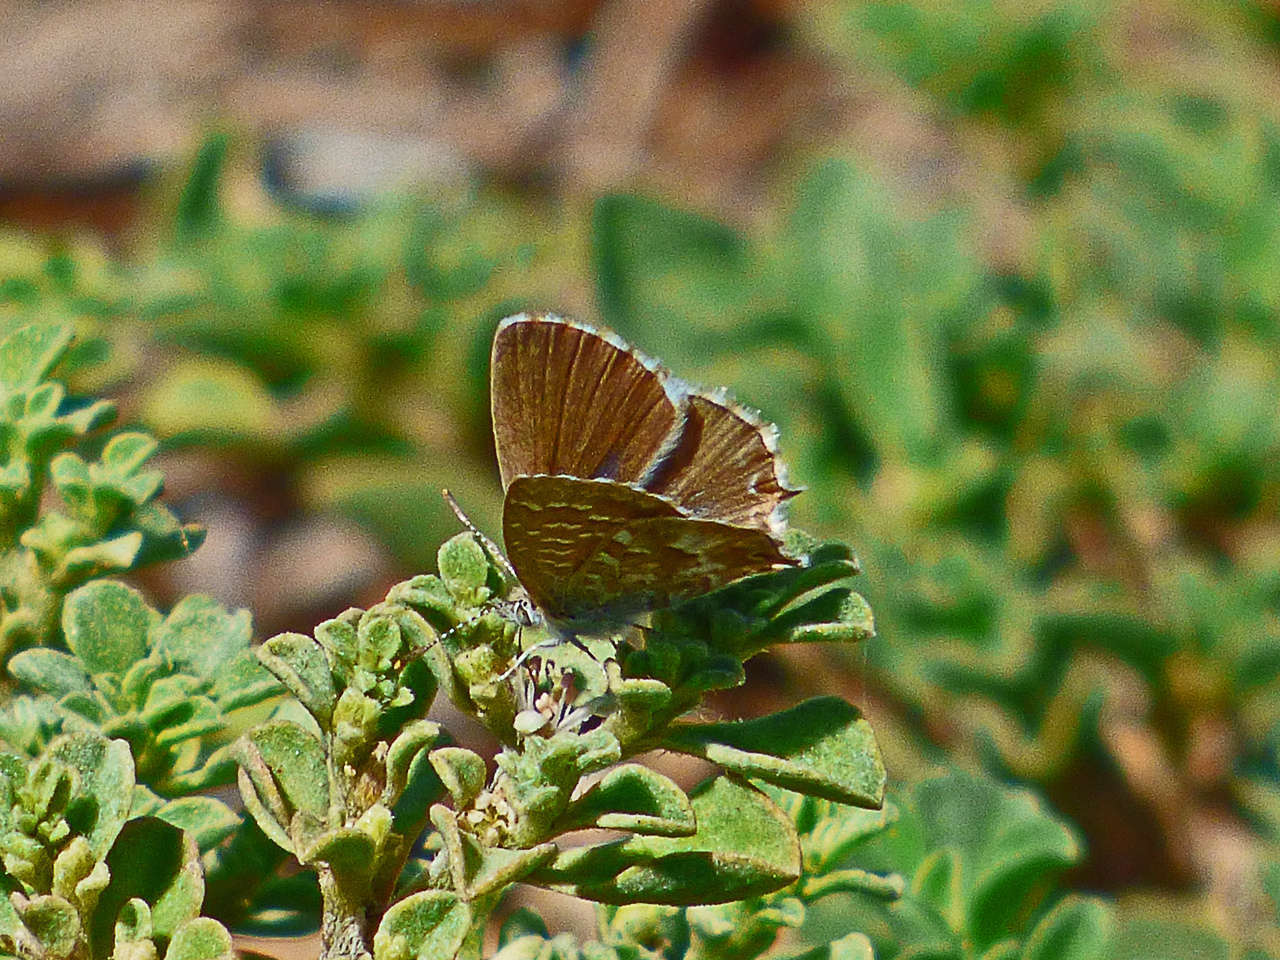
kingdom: Animalia
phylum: Arthropoda
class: Insecta
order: Lepidoptera
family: Lycaenidae
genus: Theclinesthes
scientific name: Theclinesthes serpentata
